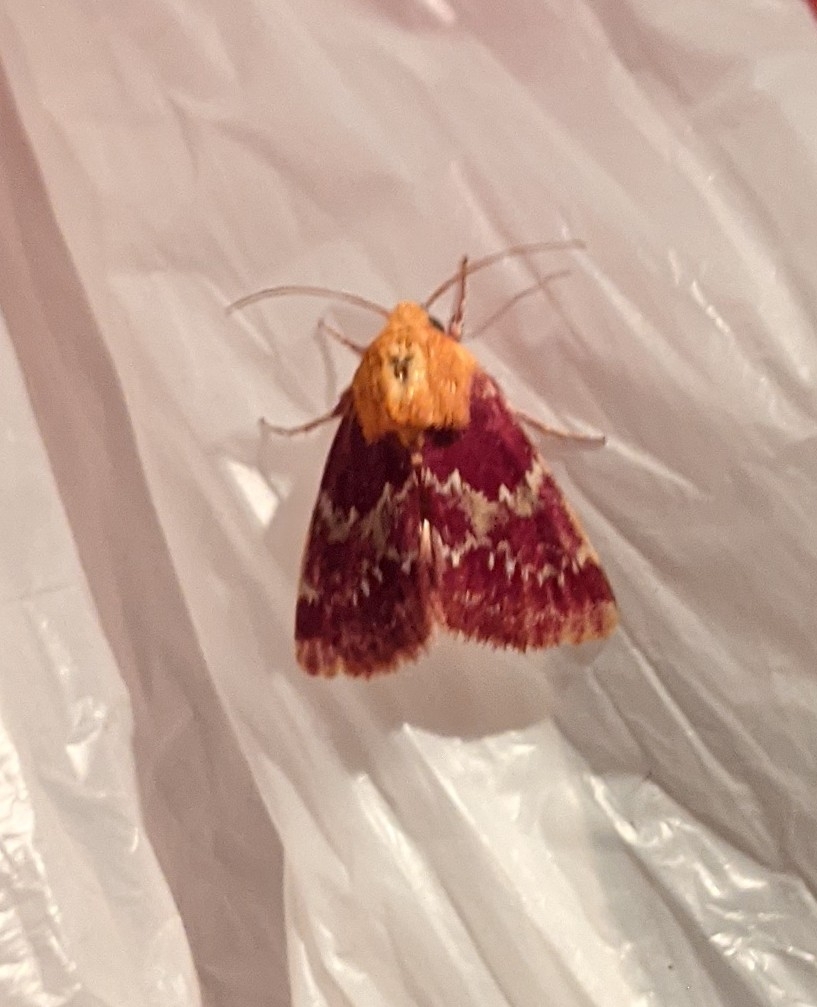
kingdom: Animalia
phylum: Arthropoda
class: Insecta
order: Lepidoptera
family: Noctuidae
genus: Schinia
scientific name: Schinia volupia
